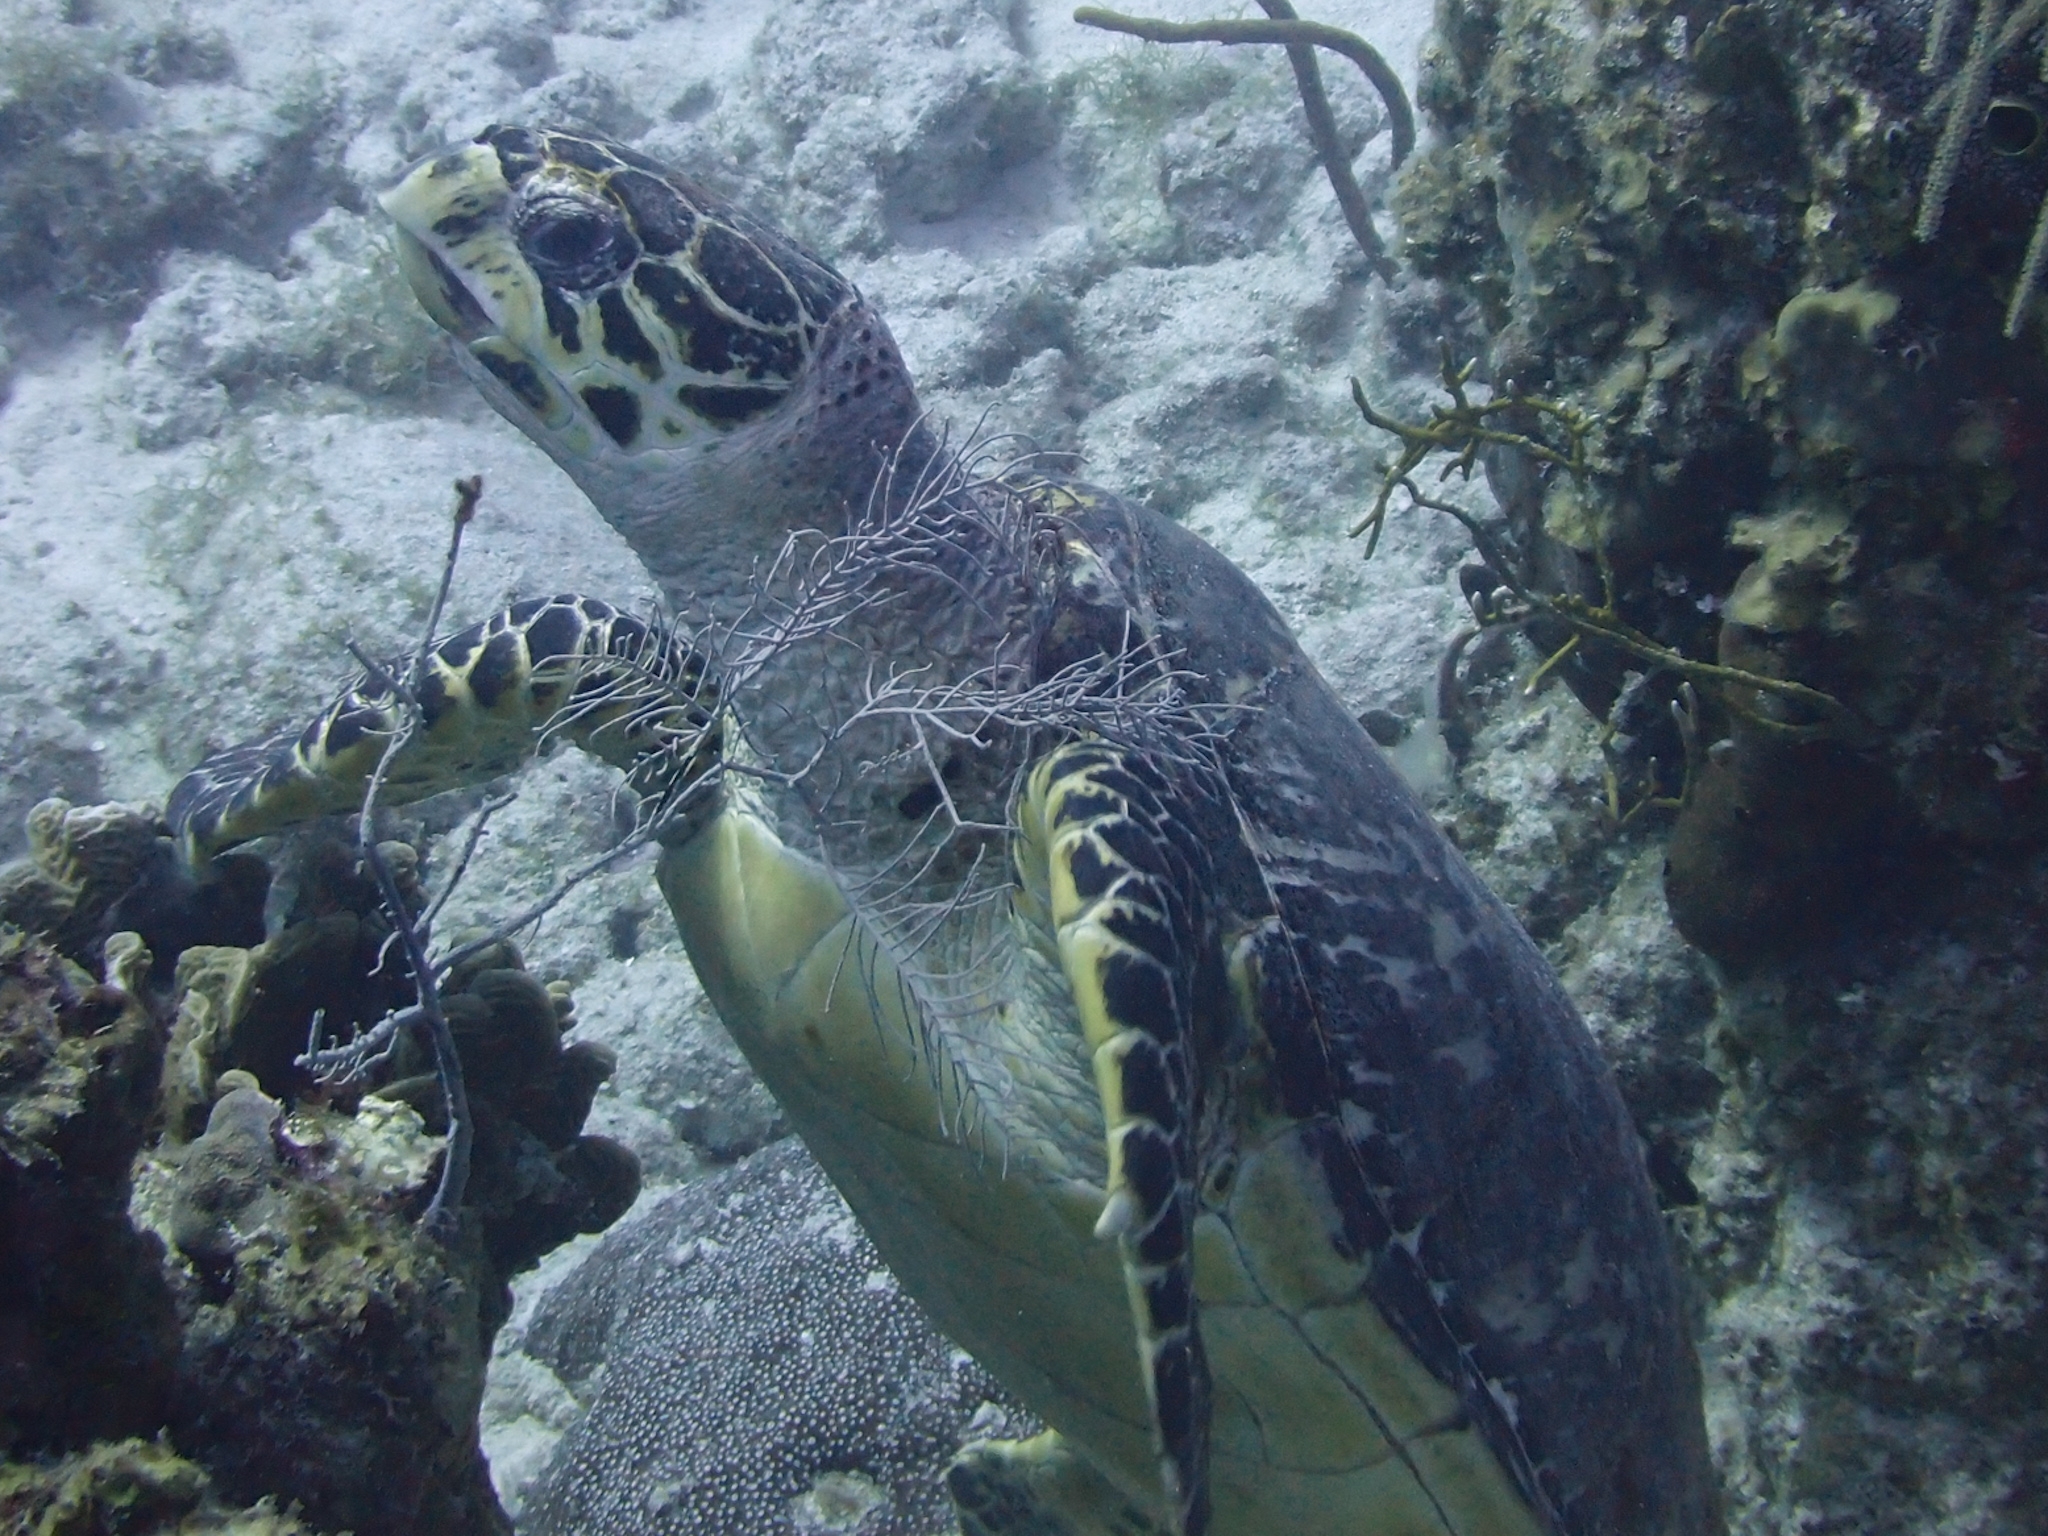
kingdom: Animalia
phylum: Chordata
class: Testudines
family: Cheloniidae
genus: Eretmochelys
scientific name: Eretmochelys imbricata
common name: Hawksbill turtle
